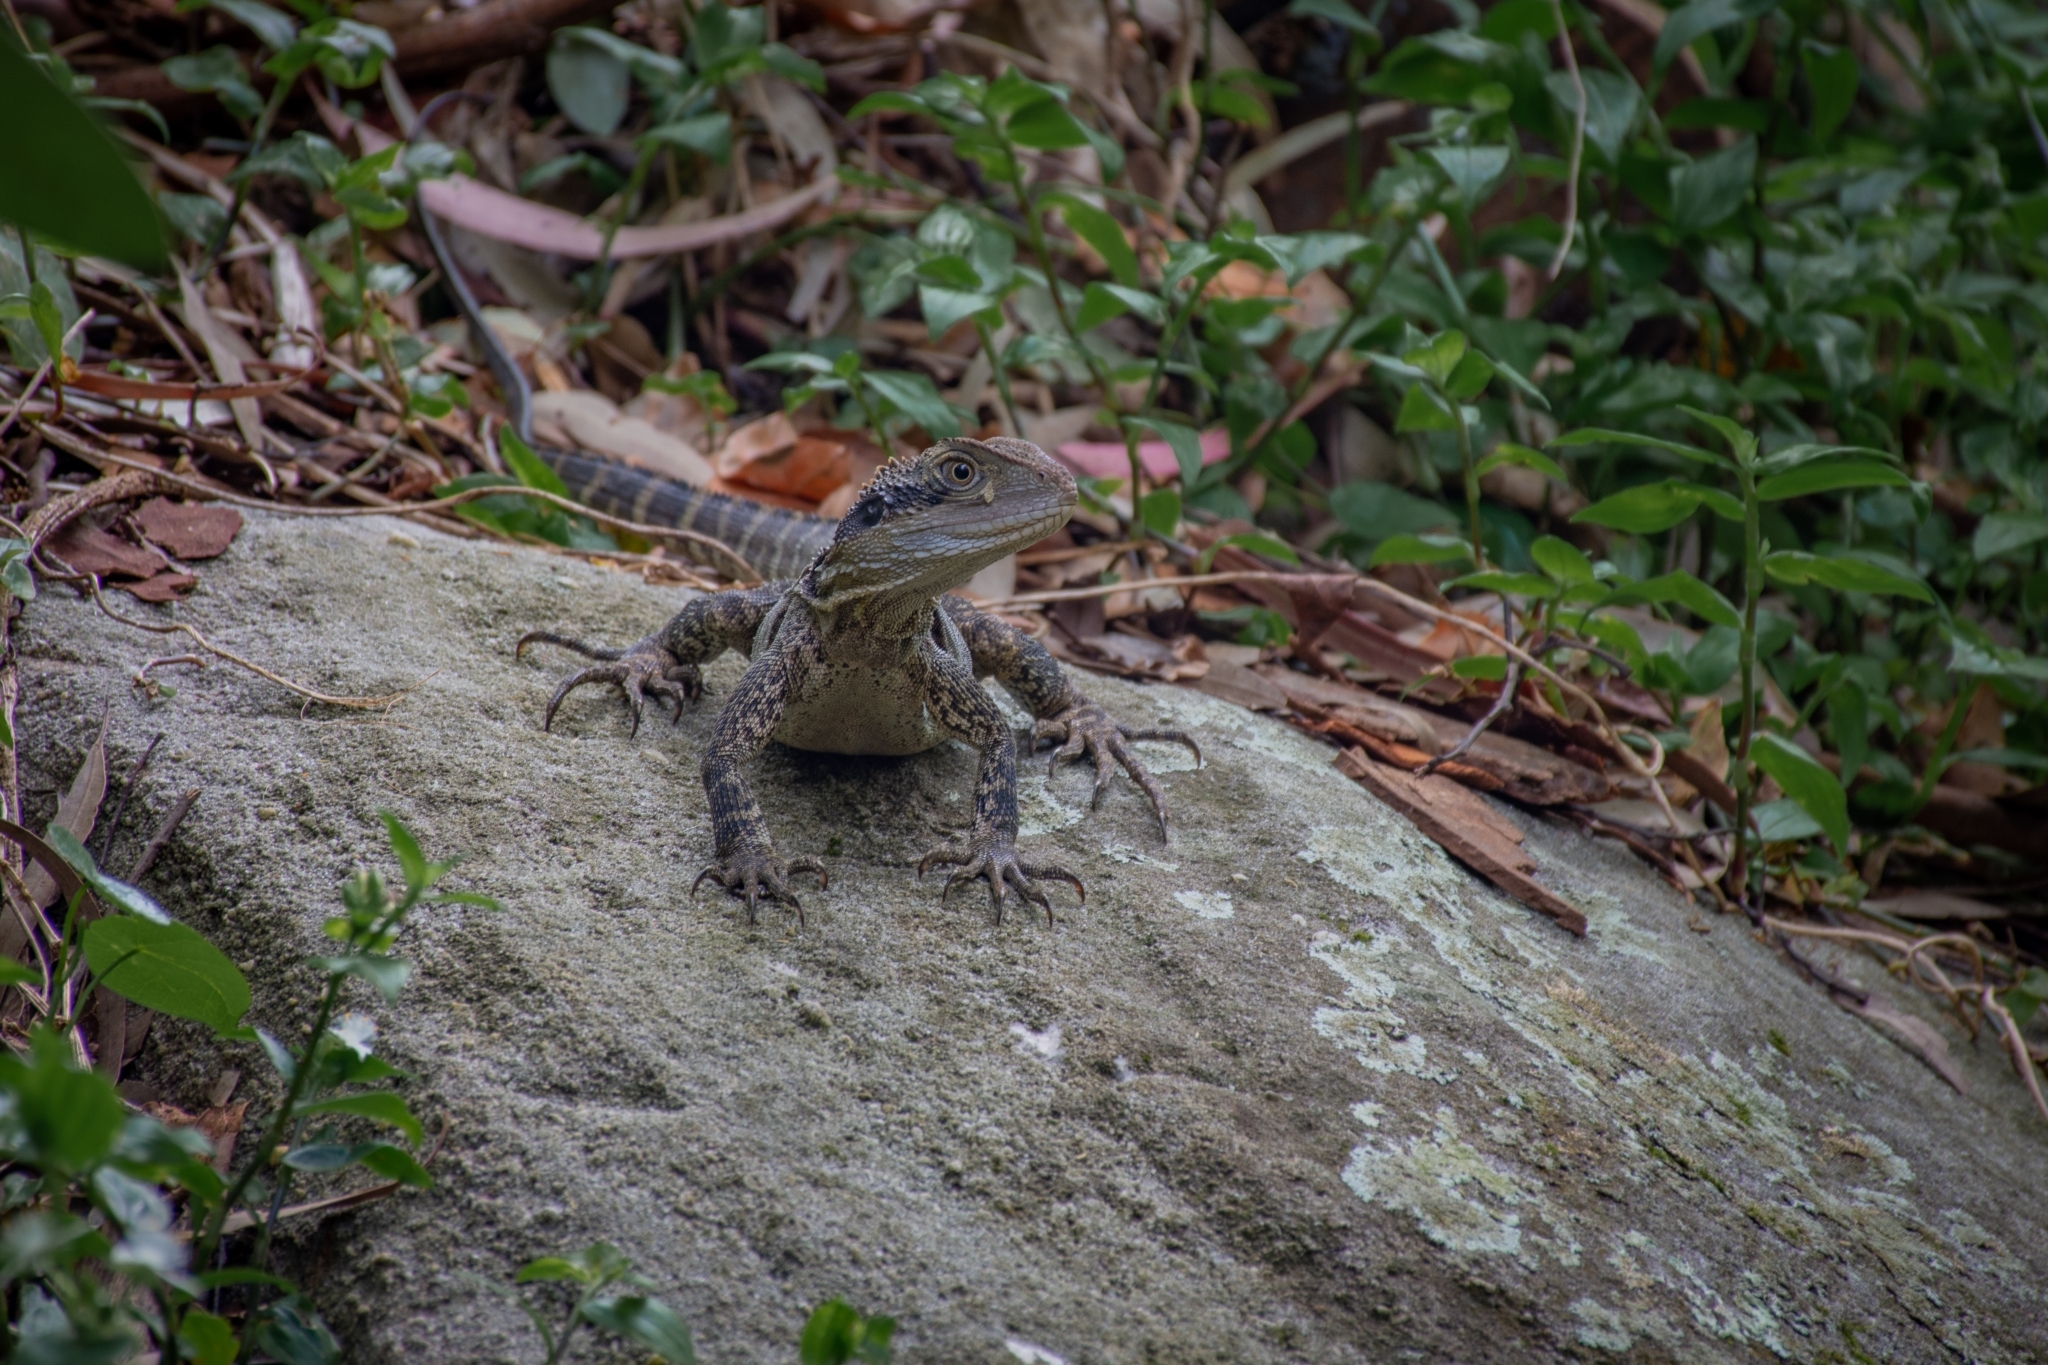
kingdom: Animalia
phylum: Chordata
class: Squamata
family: Agamidae
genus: Intellagama
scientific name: Intellagama lesueurii
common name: Eastern water dragon
